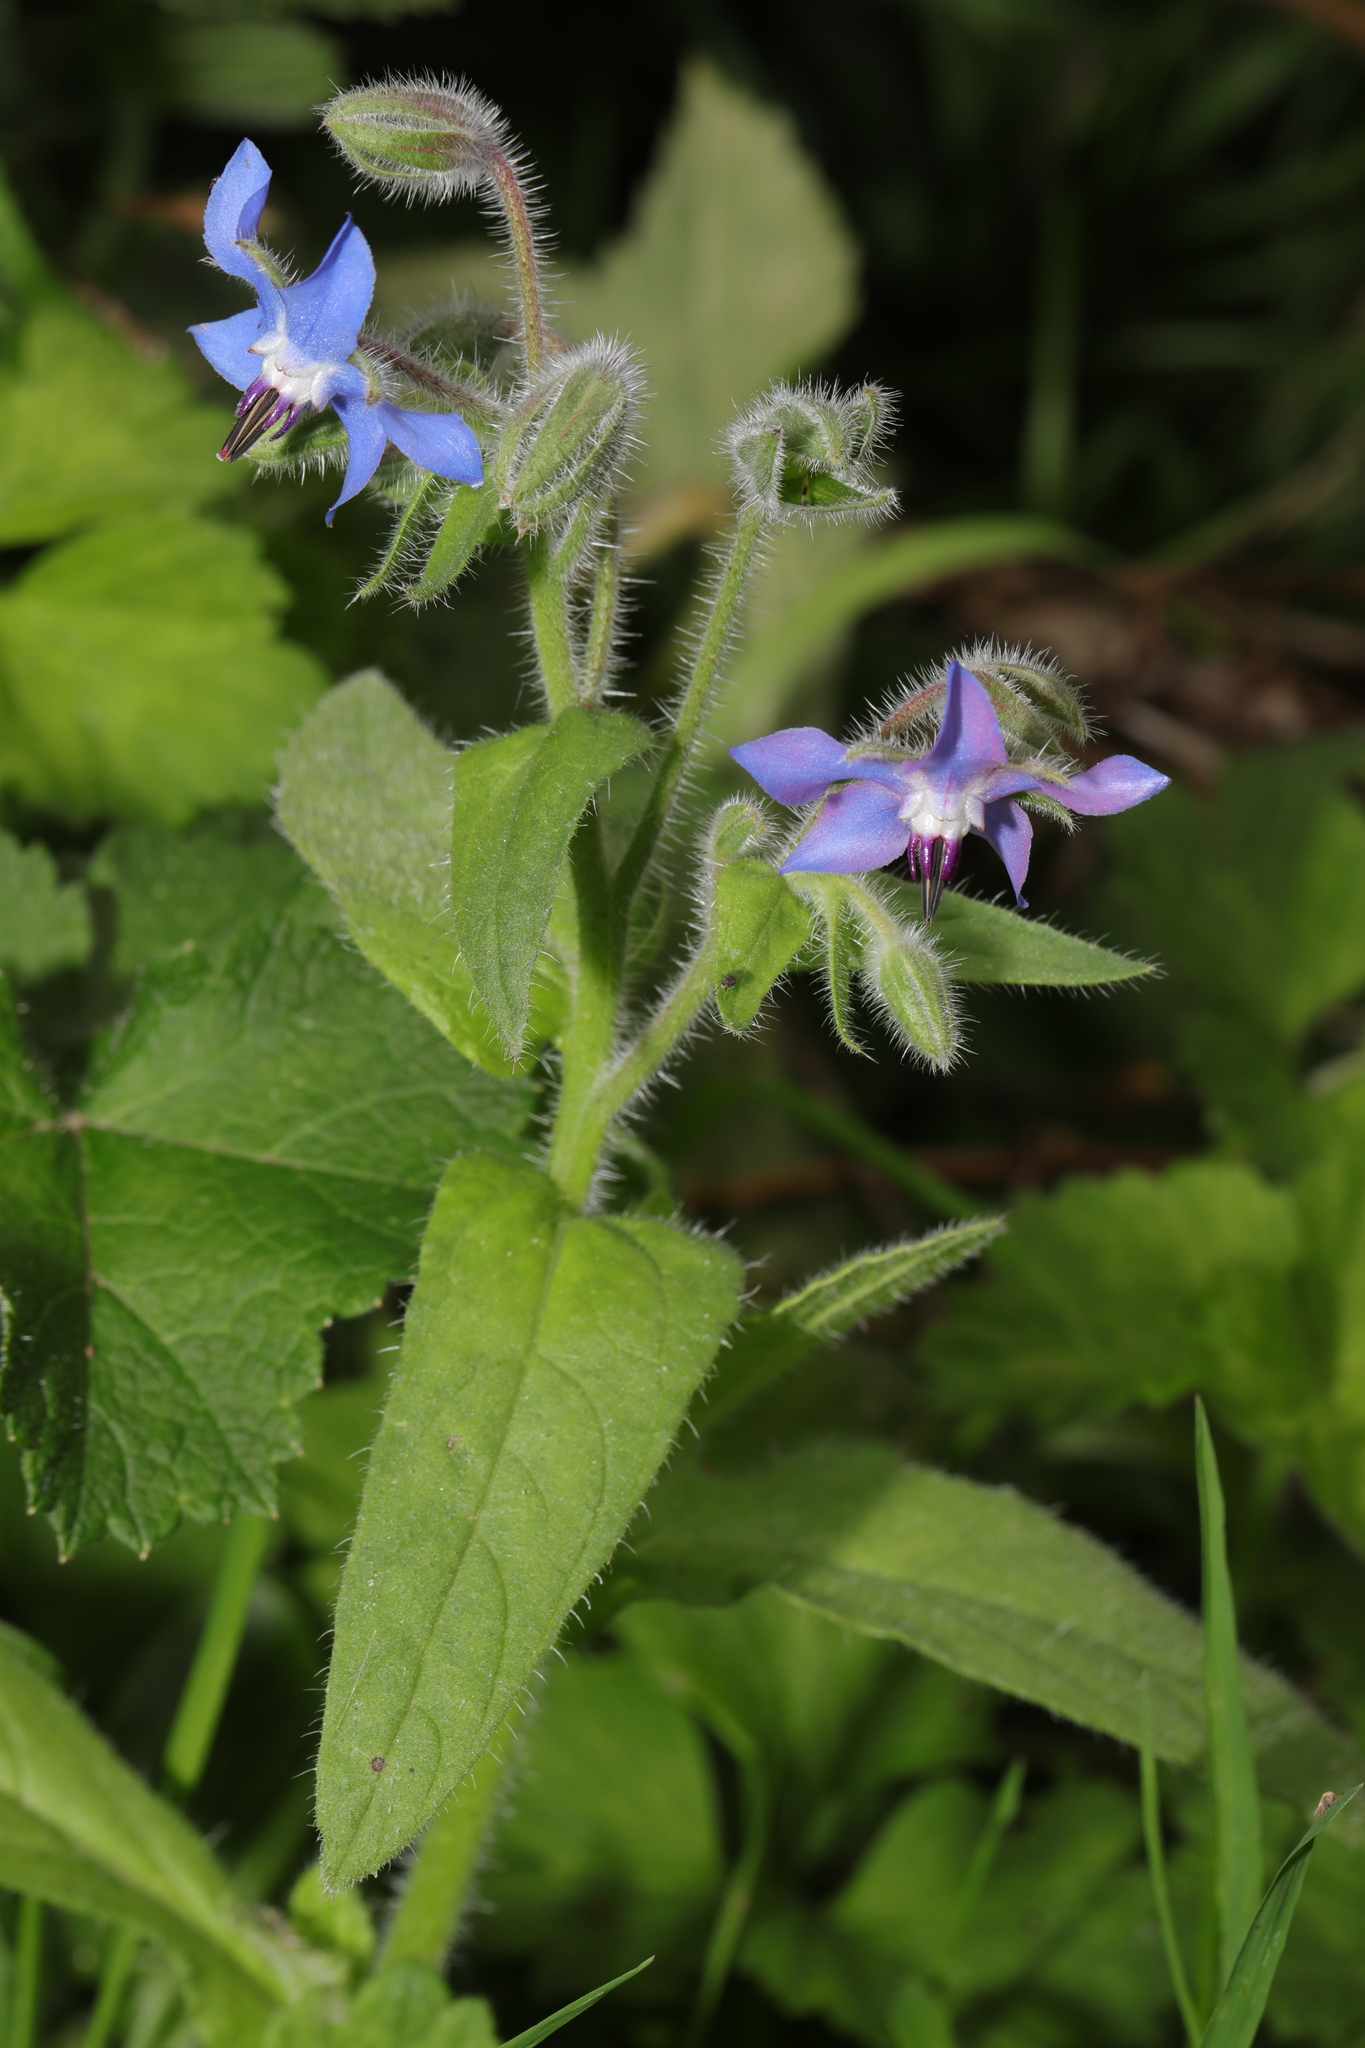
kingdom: Plantae
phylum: Tracheophyta
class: Magnoliopsida
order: Boraginales
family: Boraginaceae
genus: Borago
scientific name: Borago officinalis
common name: Borage
